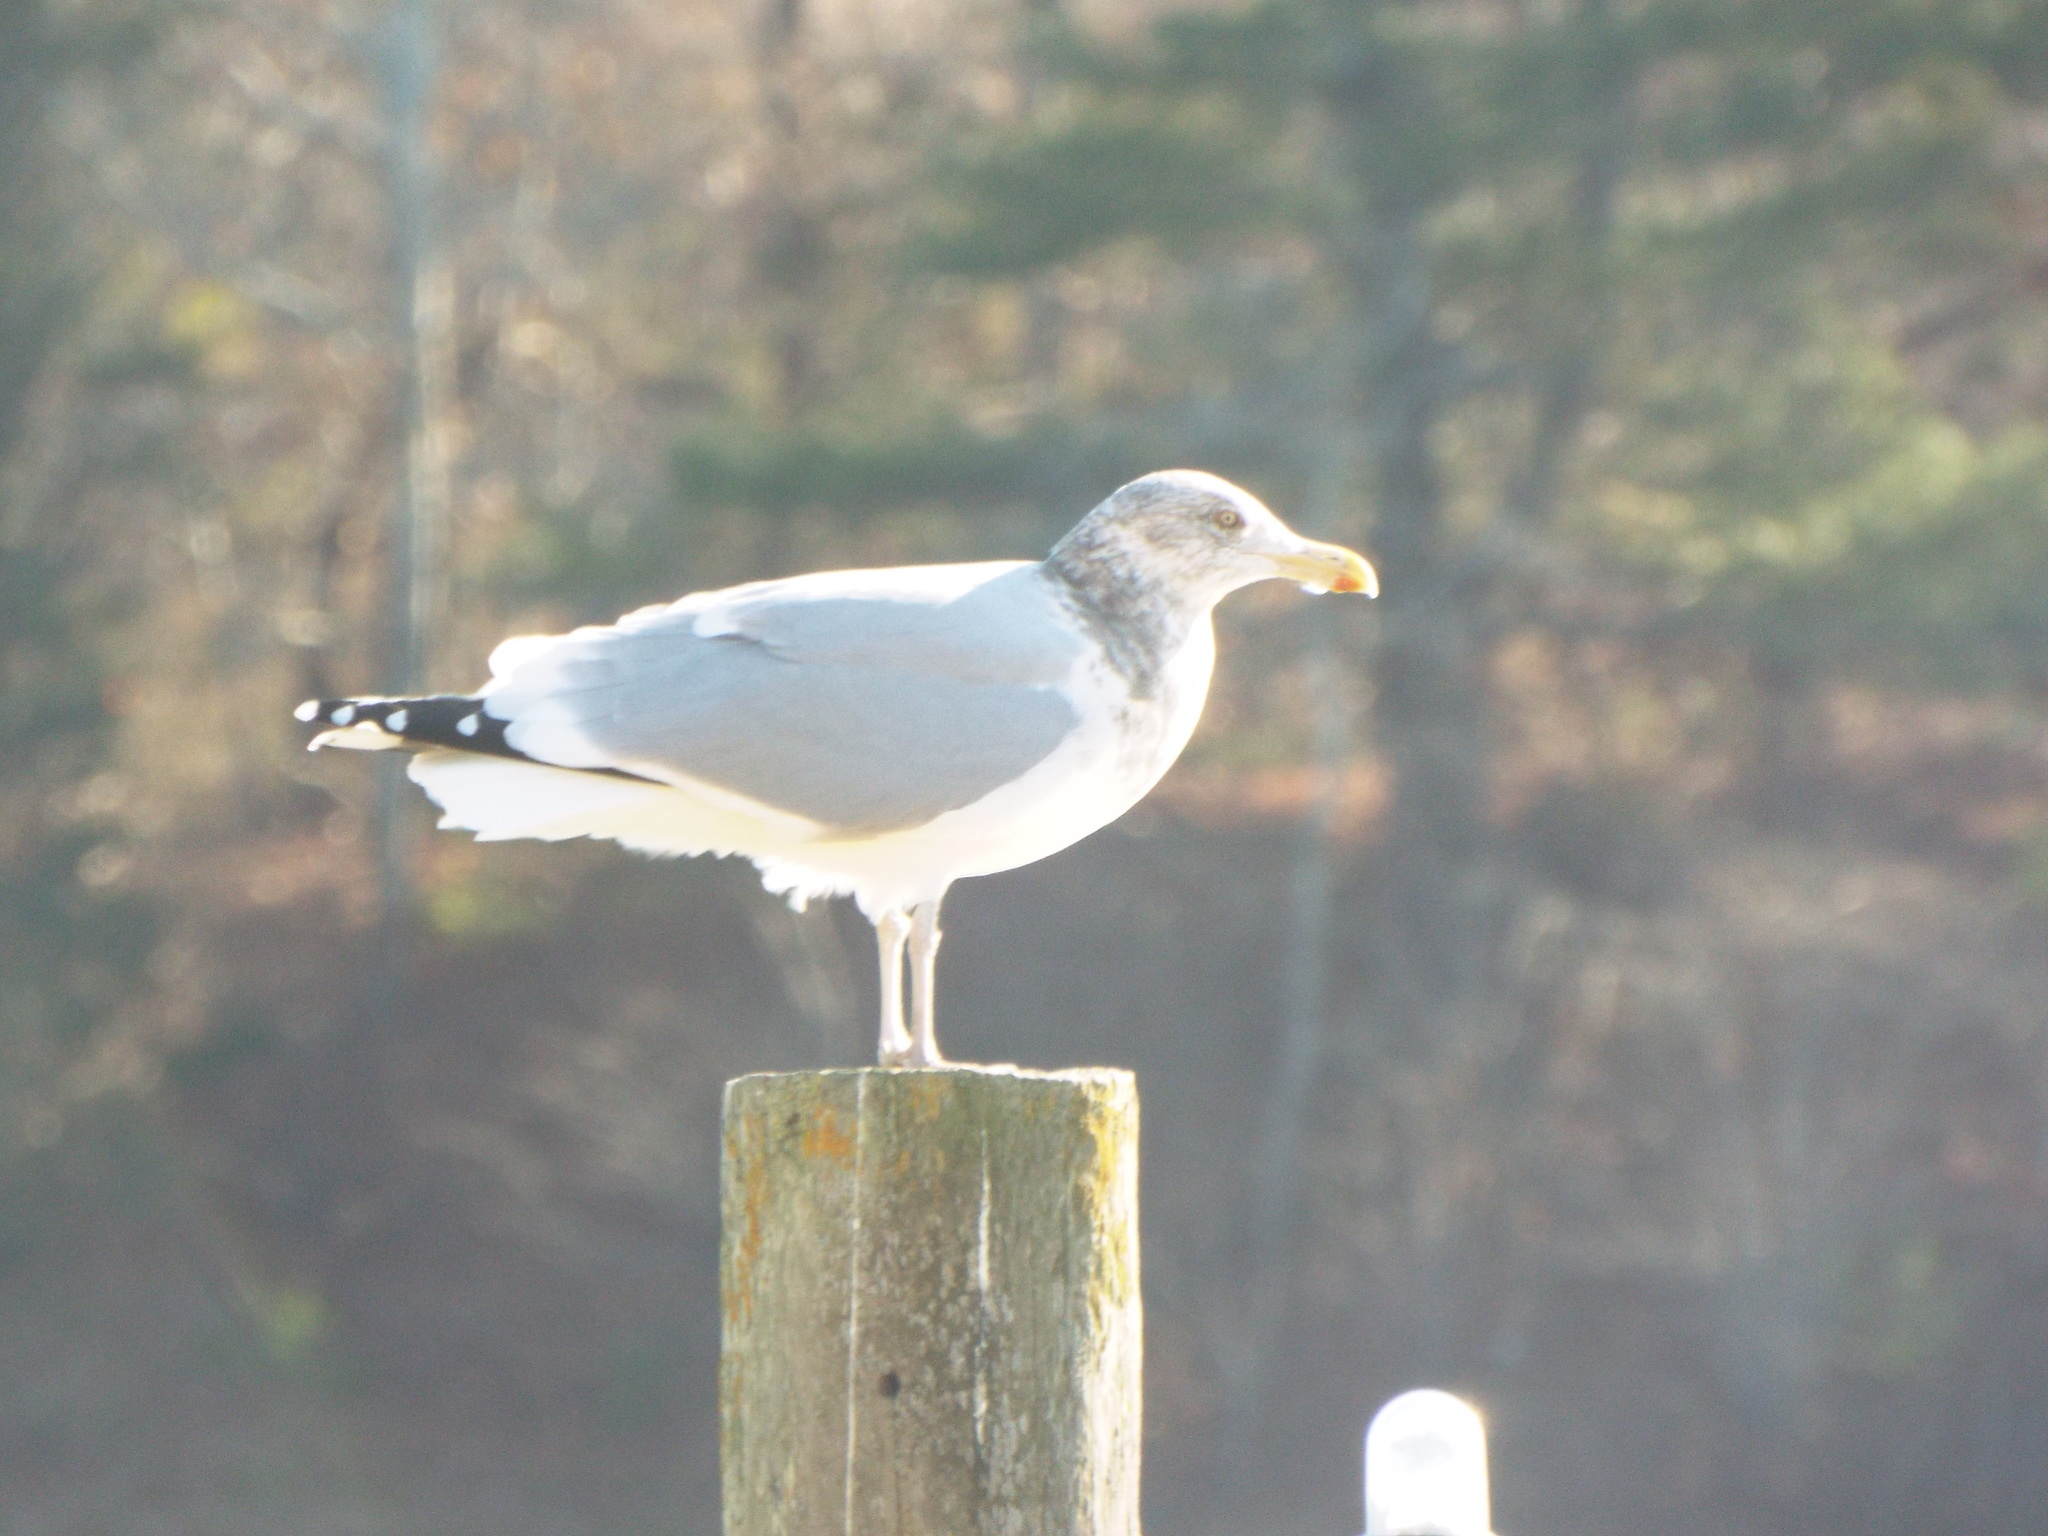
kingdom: Animalia
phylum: Chordata
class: Aves
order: Charadriiformes
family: Laridae
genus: Larus
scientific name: Larus argentatus
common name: Herring gull
